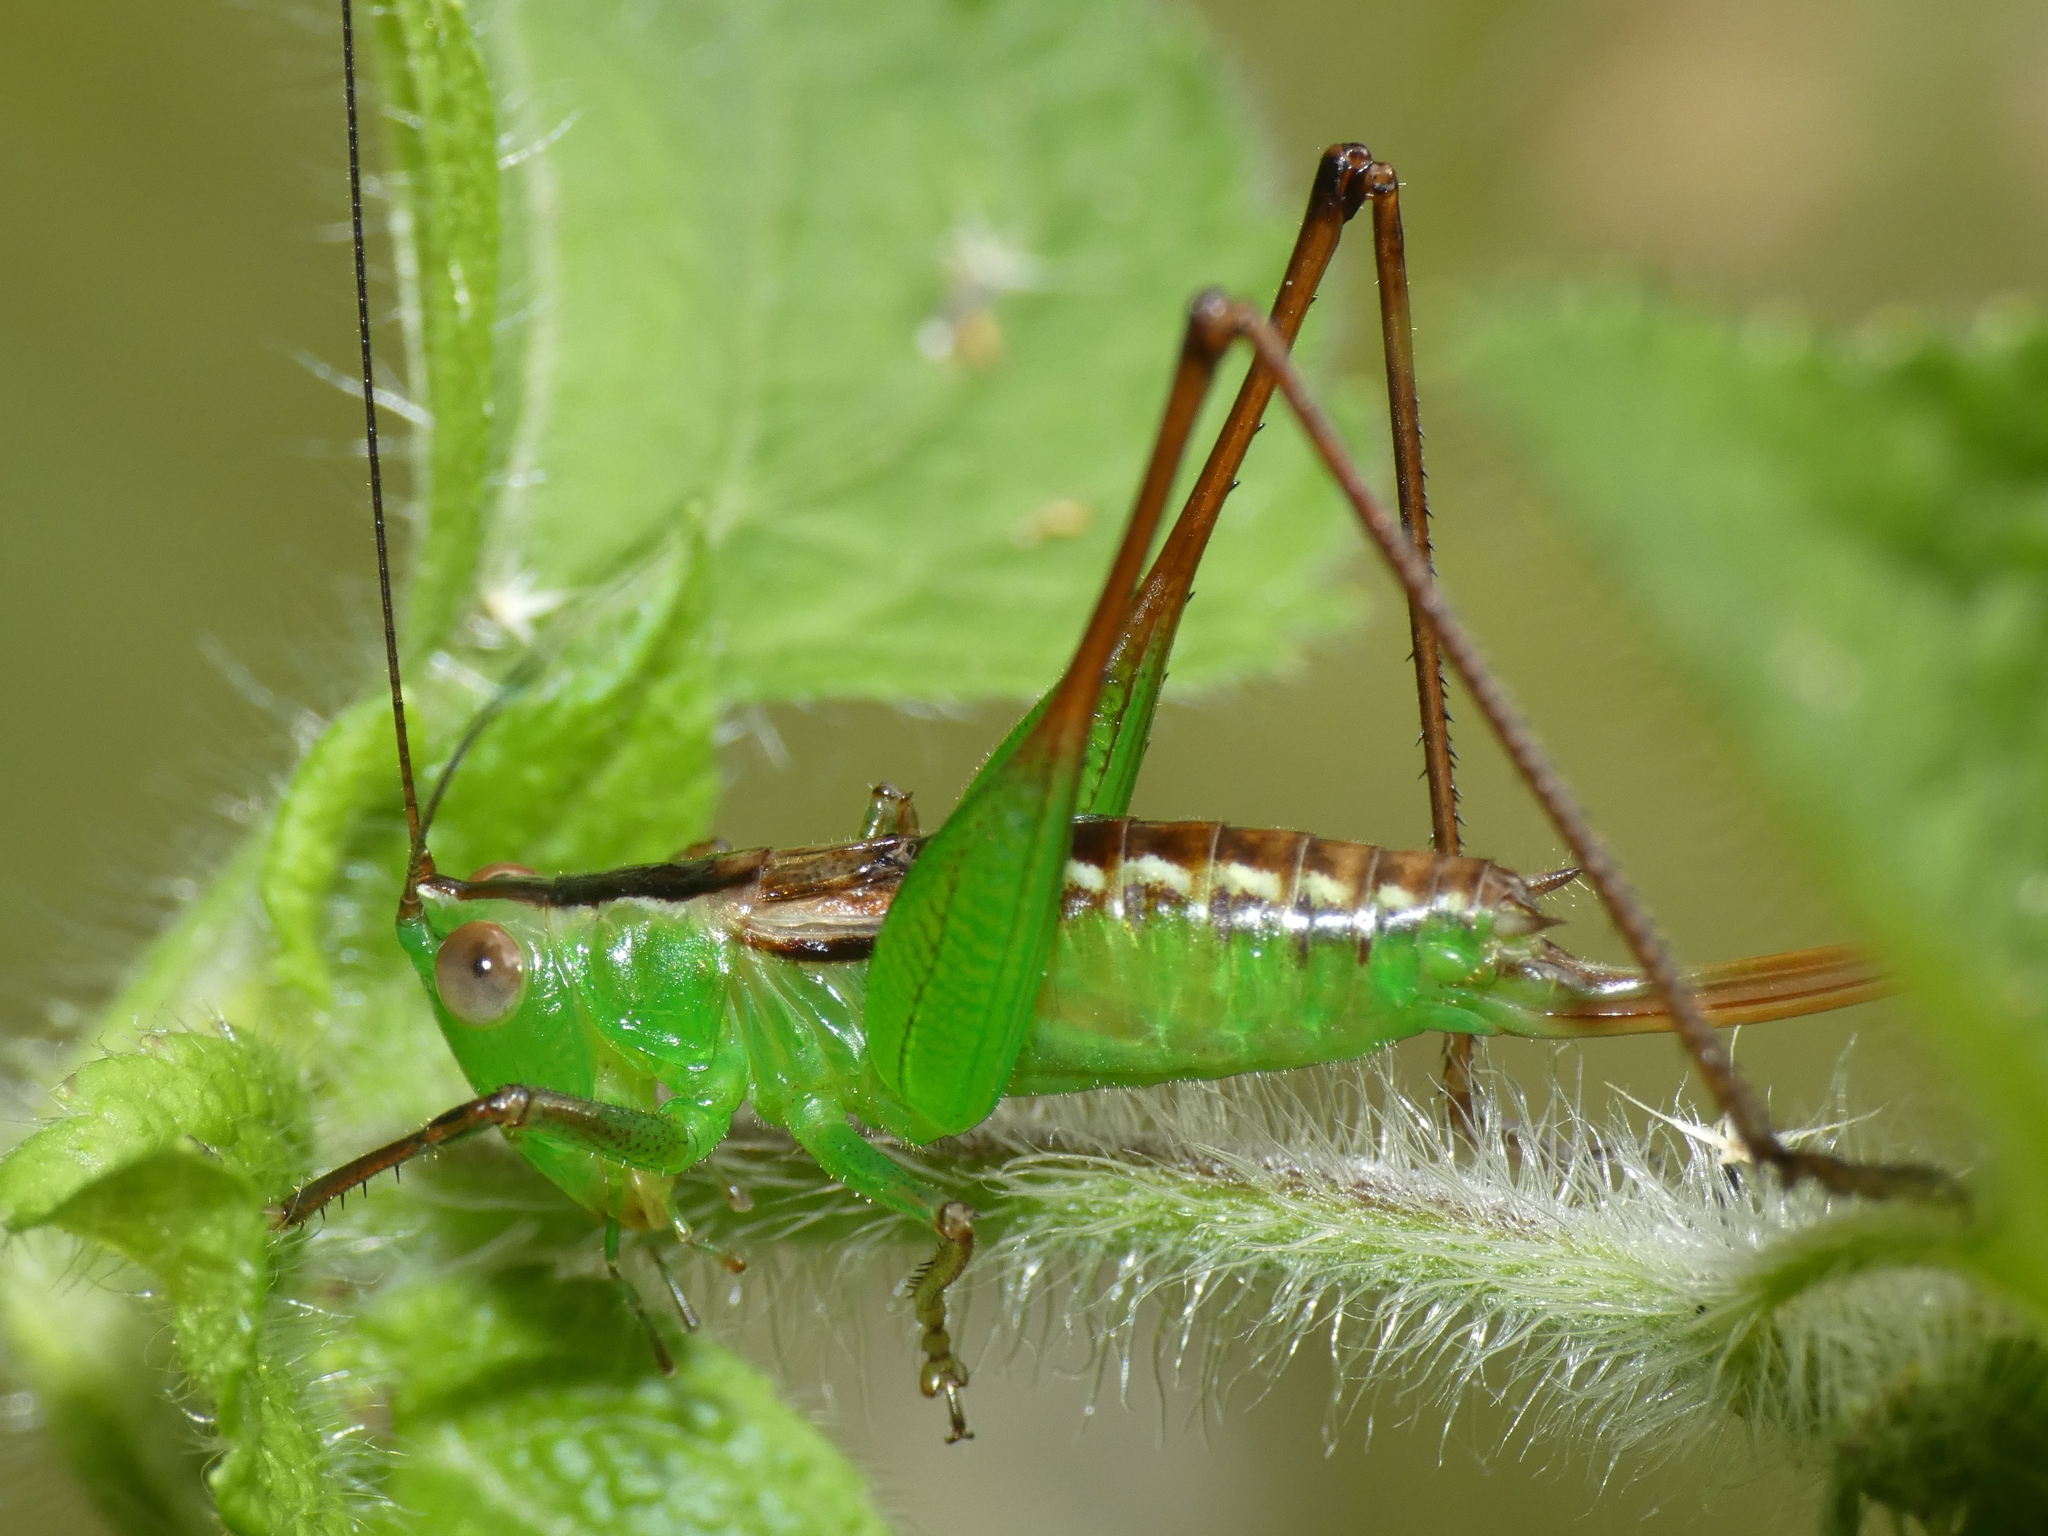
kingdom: Animalia
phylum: Arthropoda
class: Insecta
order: Orthoptera
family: Tettigoniidae
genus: Conocephalus
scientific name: Conocephalus semivittatus
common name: Blackish meadow katydid
